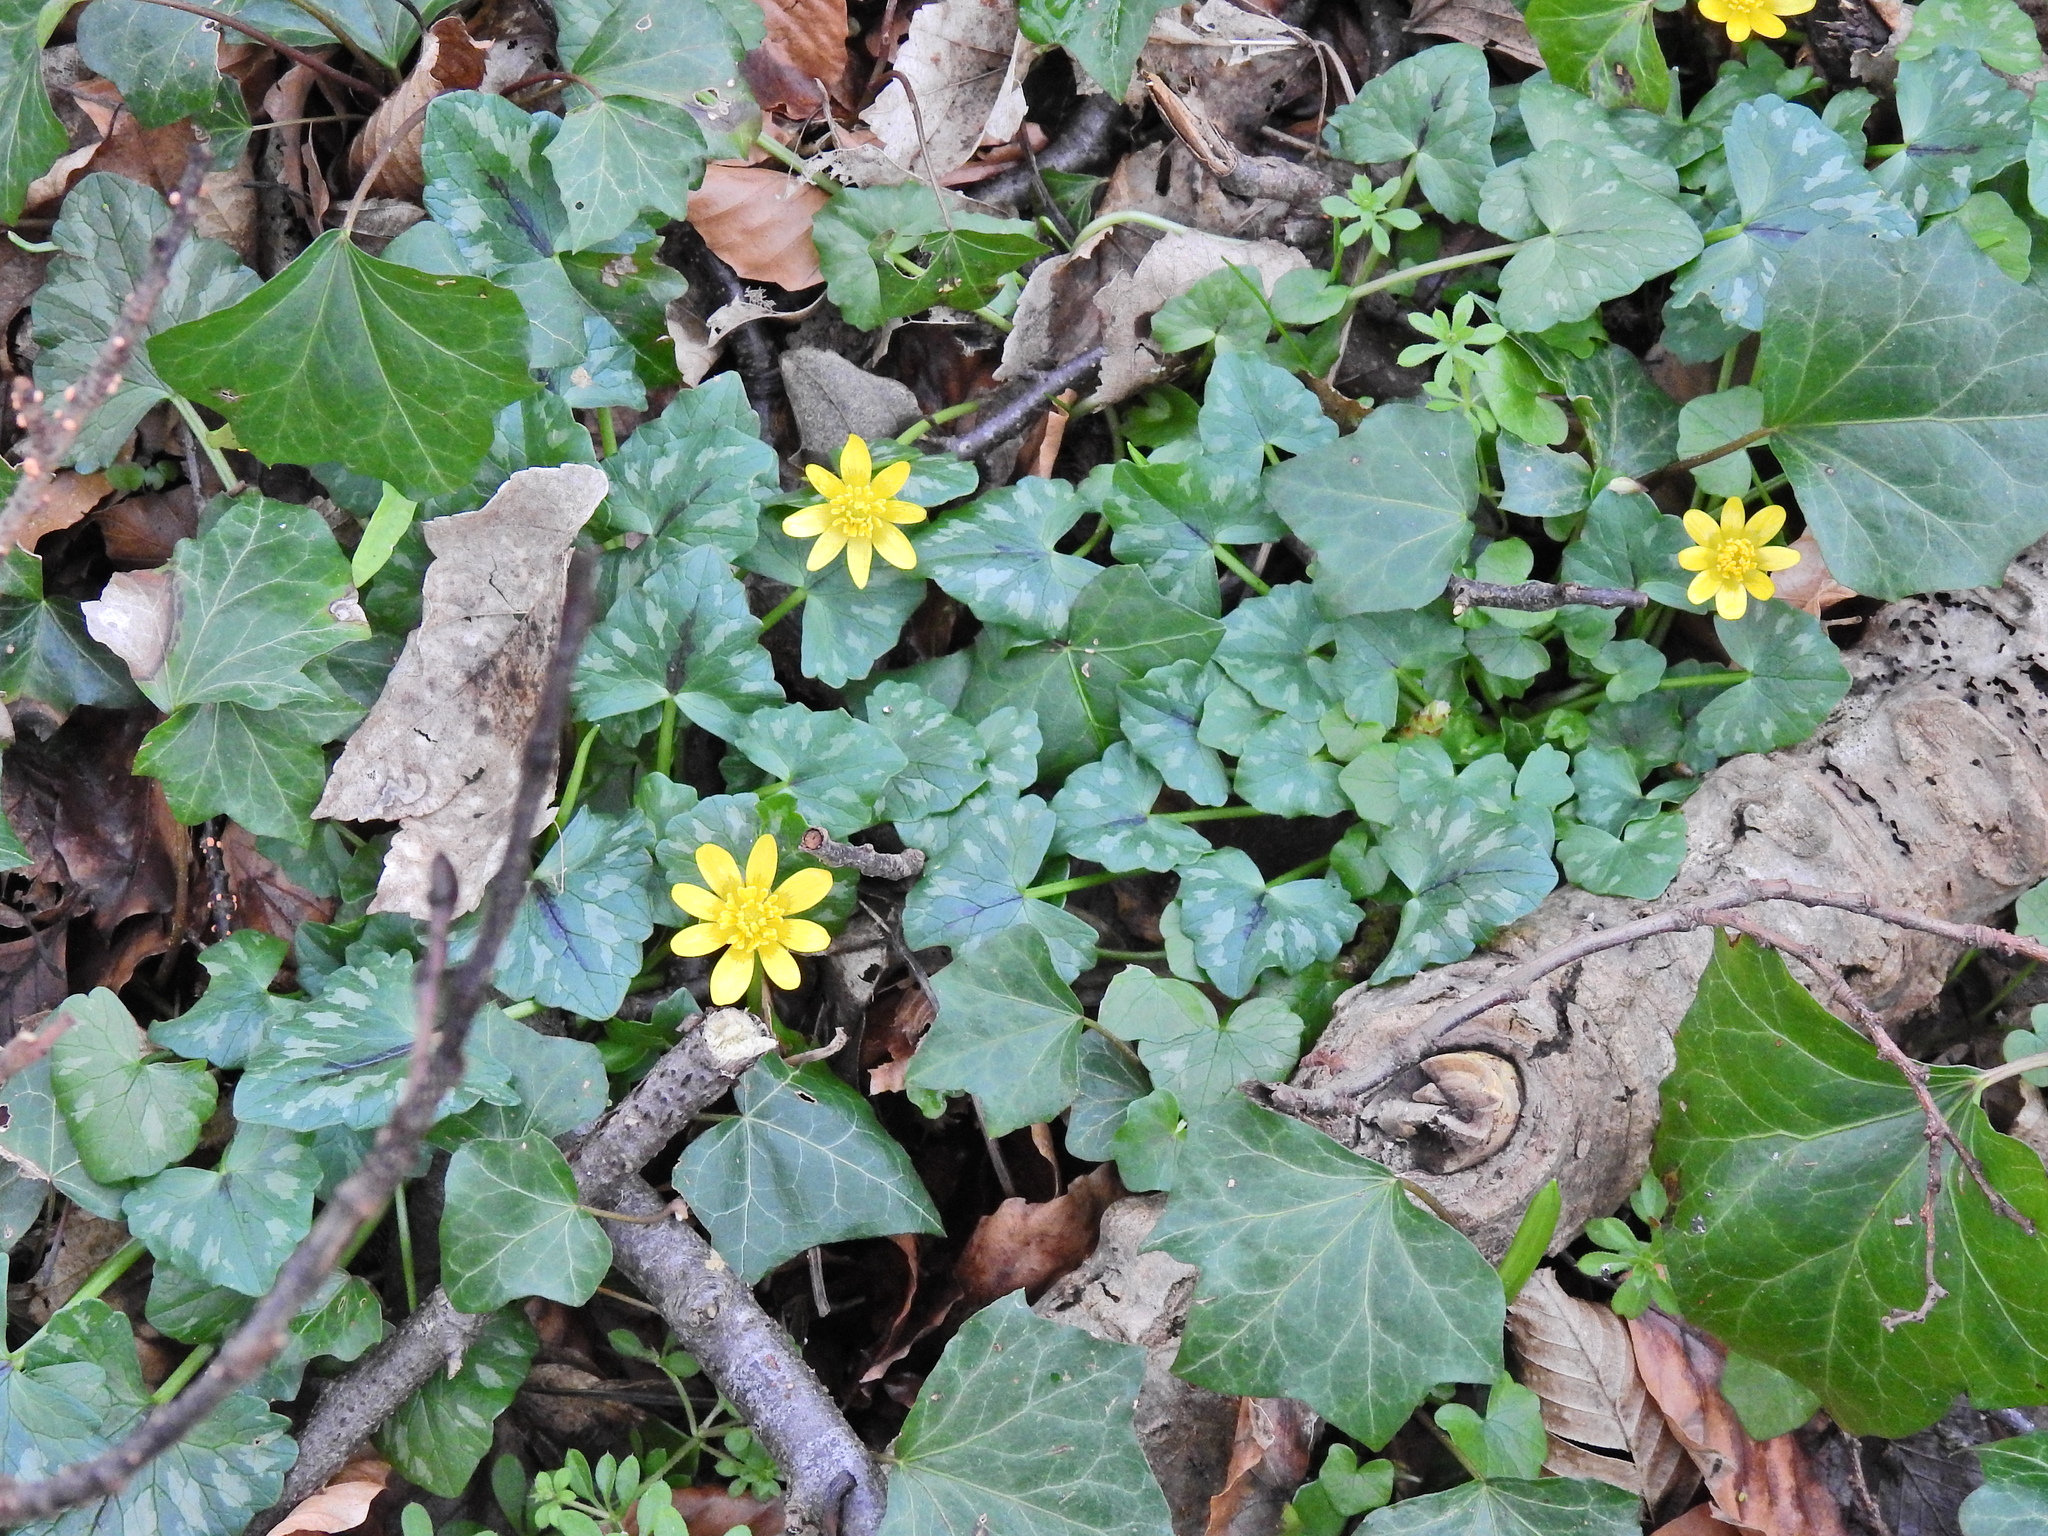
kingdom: Plantae
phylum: Tracheophyta
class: Magnoliopsida
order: Ranunculales
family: Ranunculaceae
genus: Ficaria
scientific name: Ficaria verna
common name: Lesser celandine
